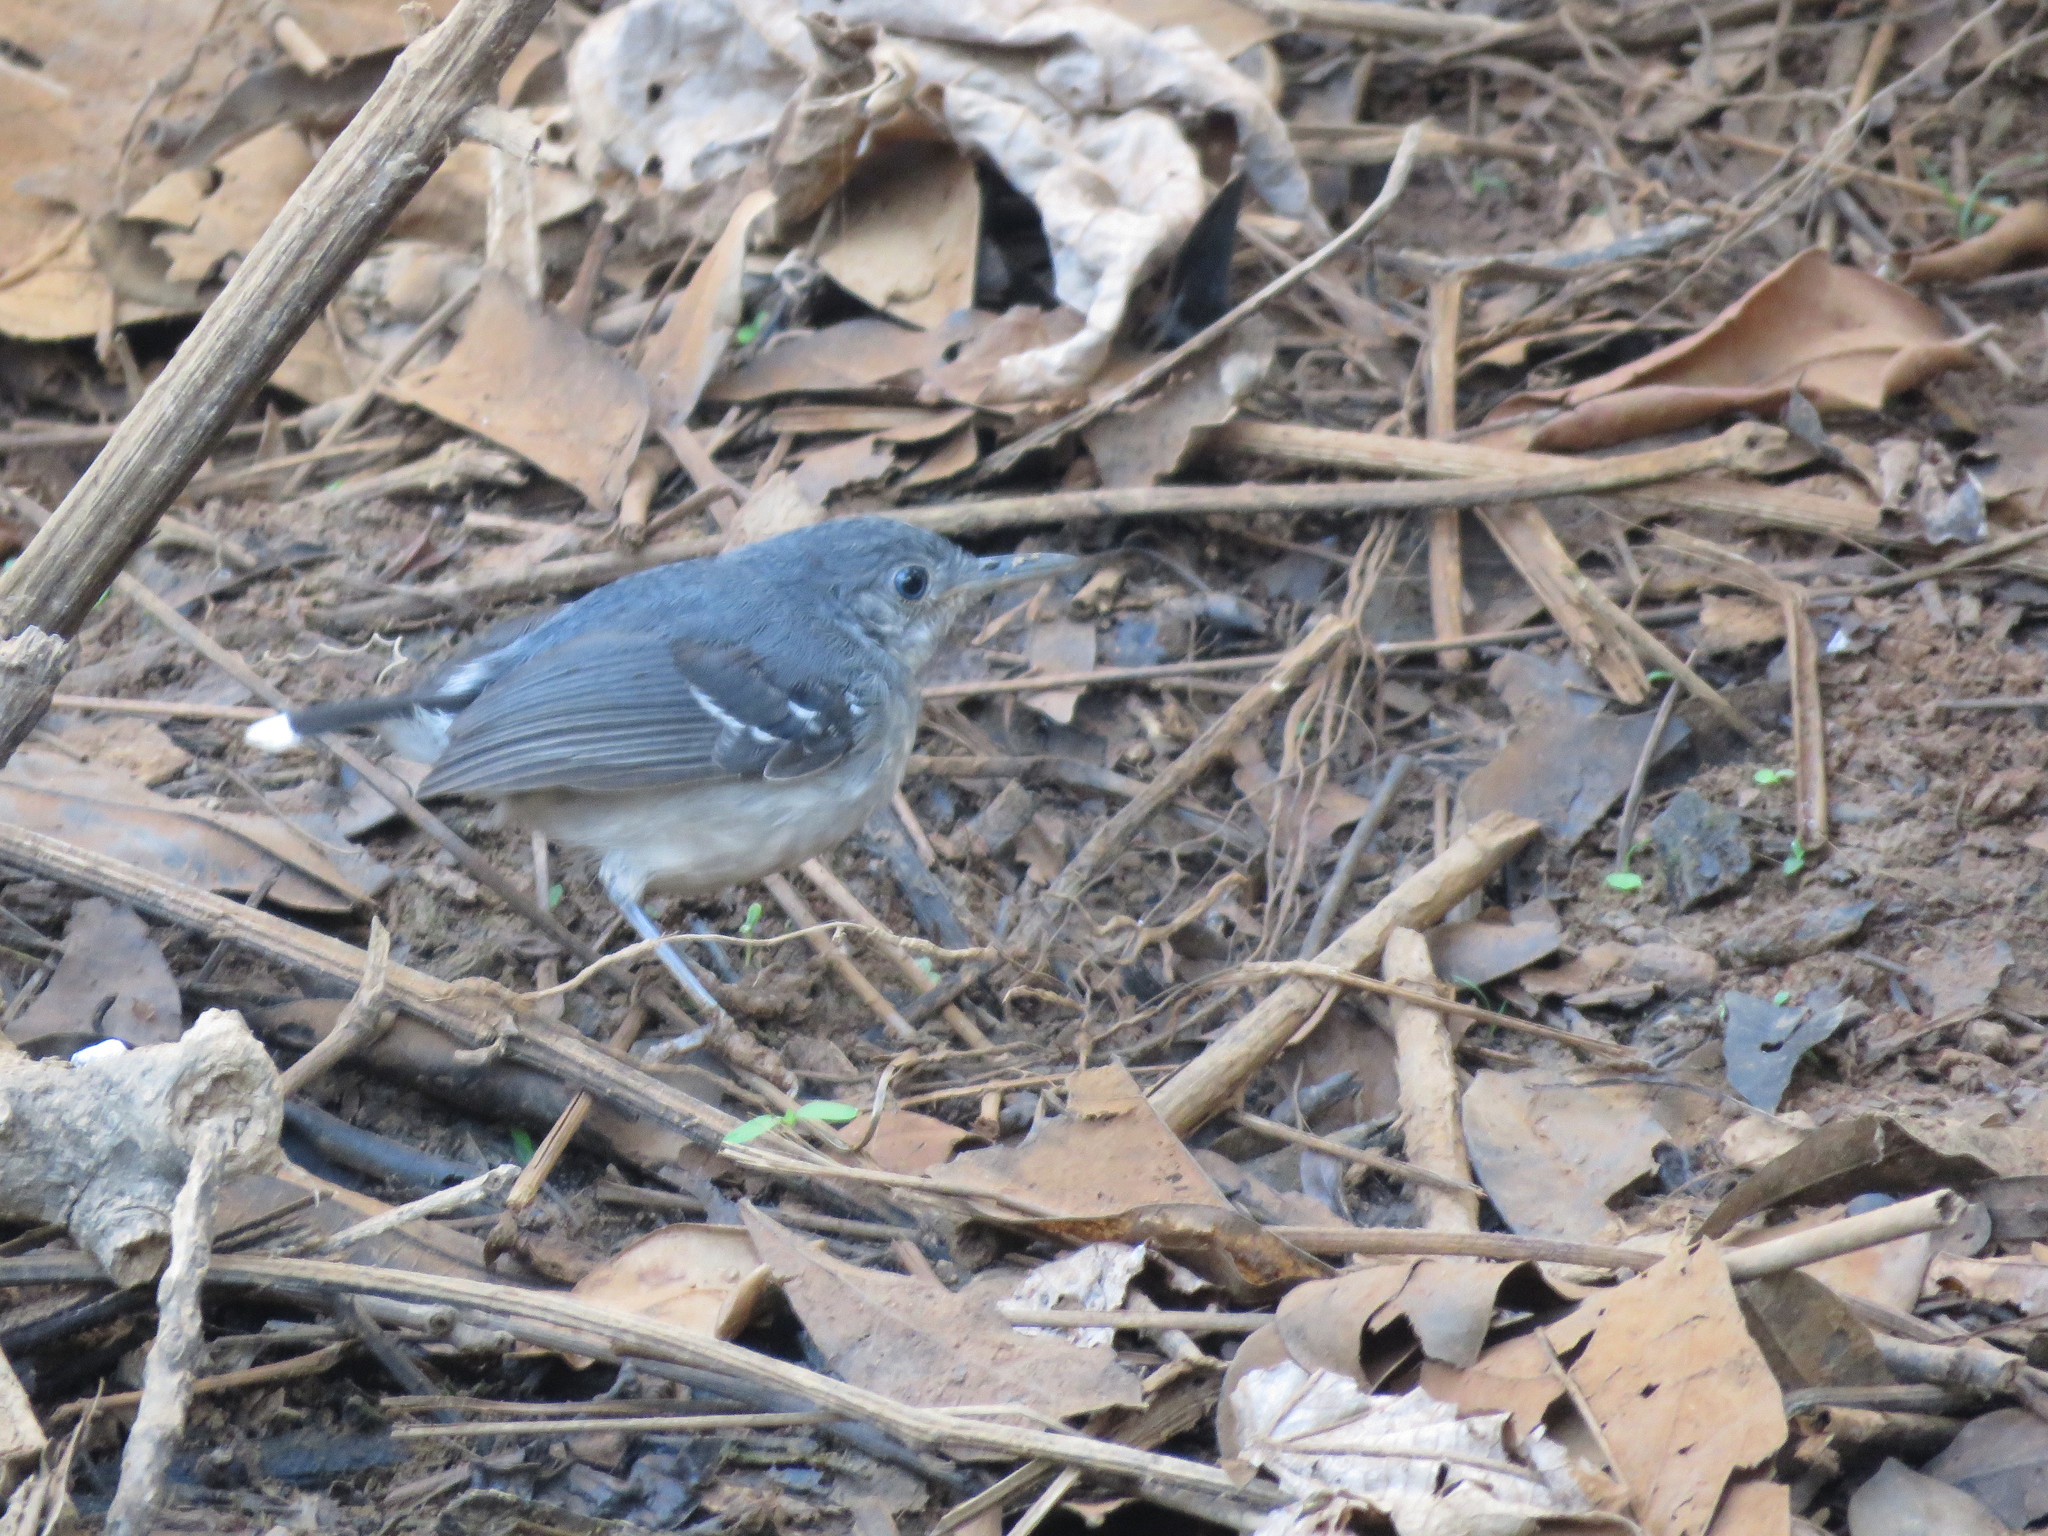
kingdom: Animalia
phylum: Chordata
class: Aves
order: Passeriformes
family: Thamnophilidae
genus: Hypocnemoides
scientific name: Hypocnemoides maculicauda
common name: Band-tailed antbird
